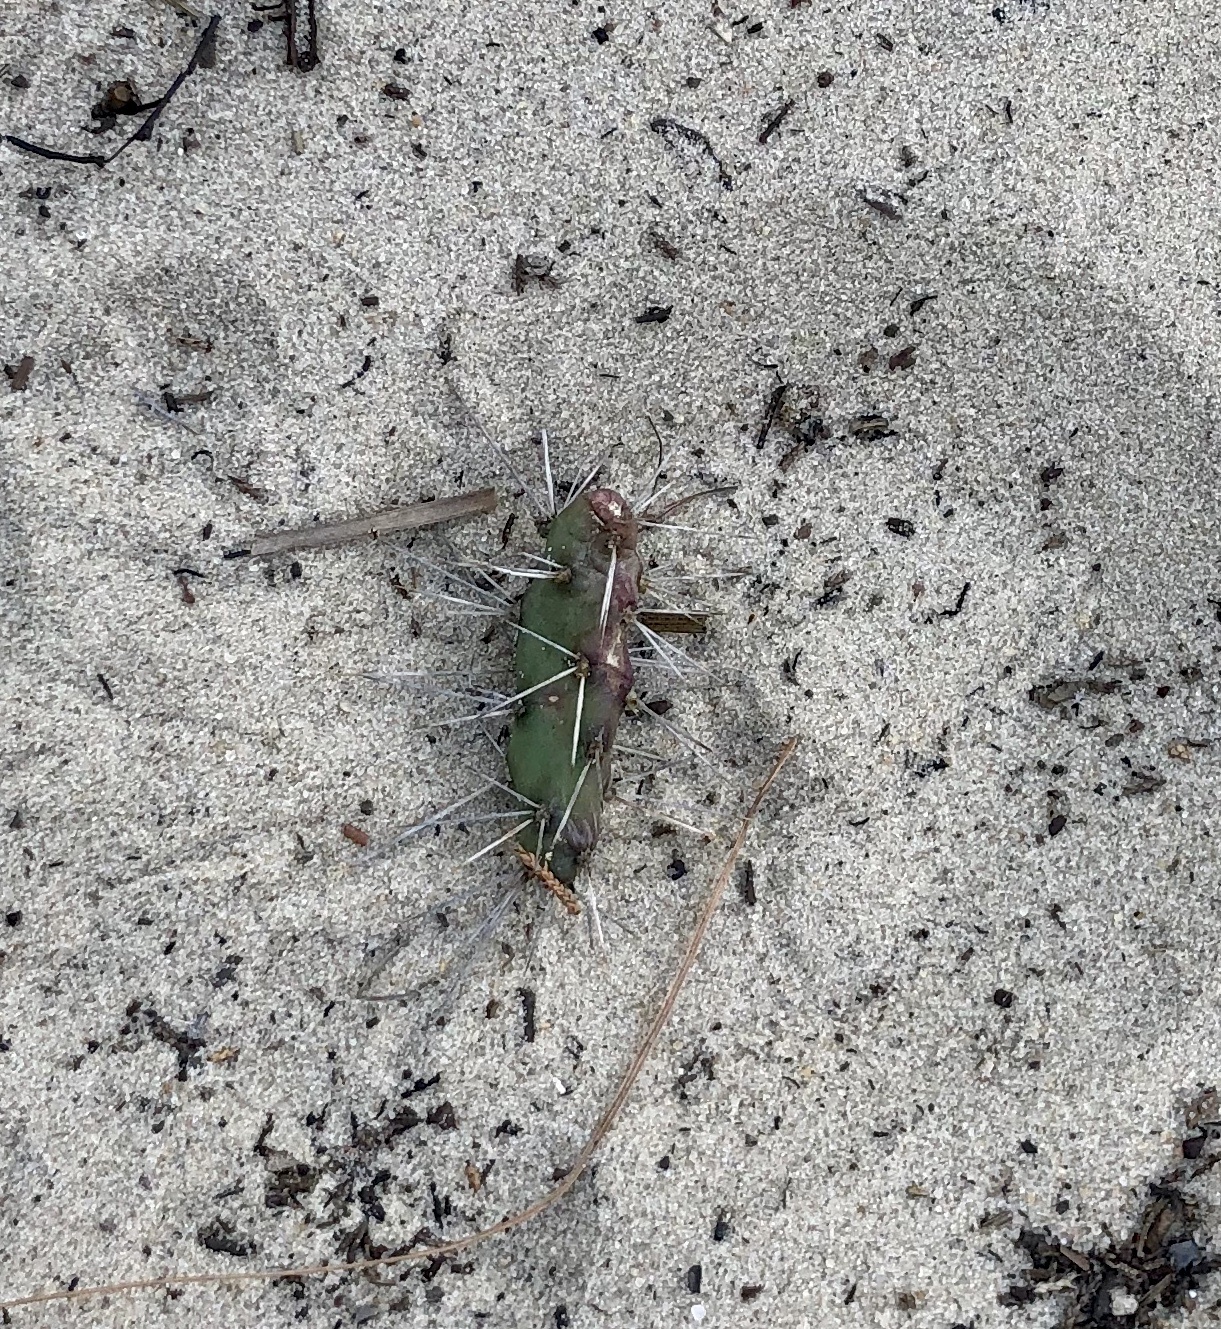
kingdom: Plantae
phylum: Tracheophyta
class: Magnoliopsida
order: Caryophyllales
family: Cactaceae
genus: Opuntia
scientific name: Opuntia drummondii
